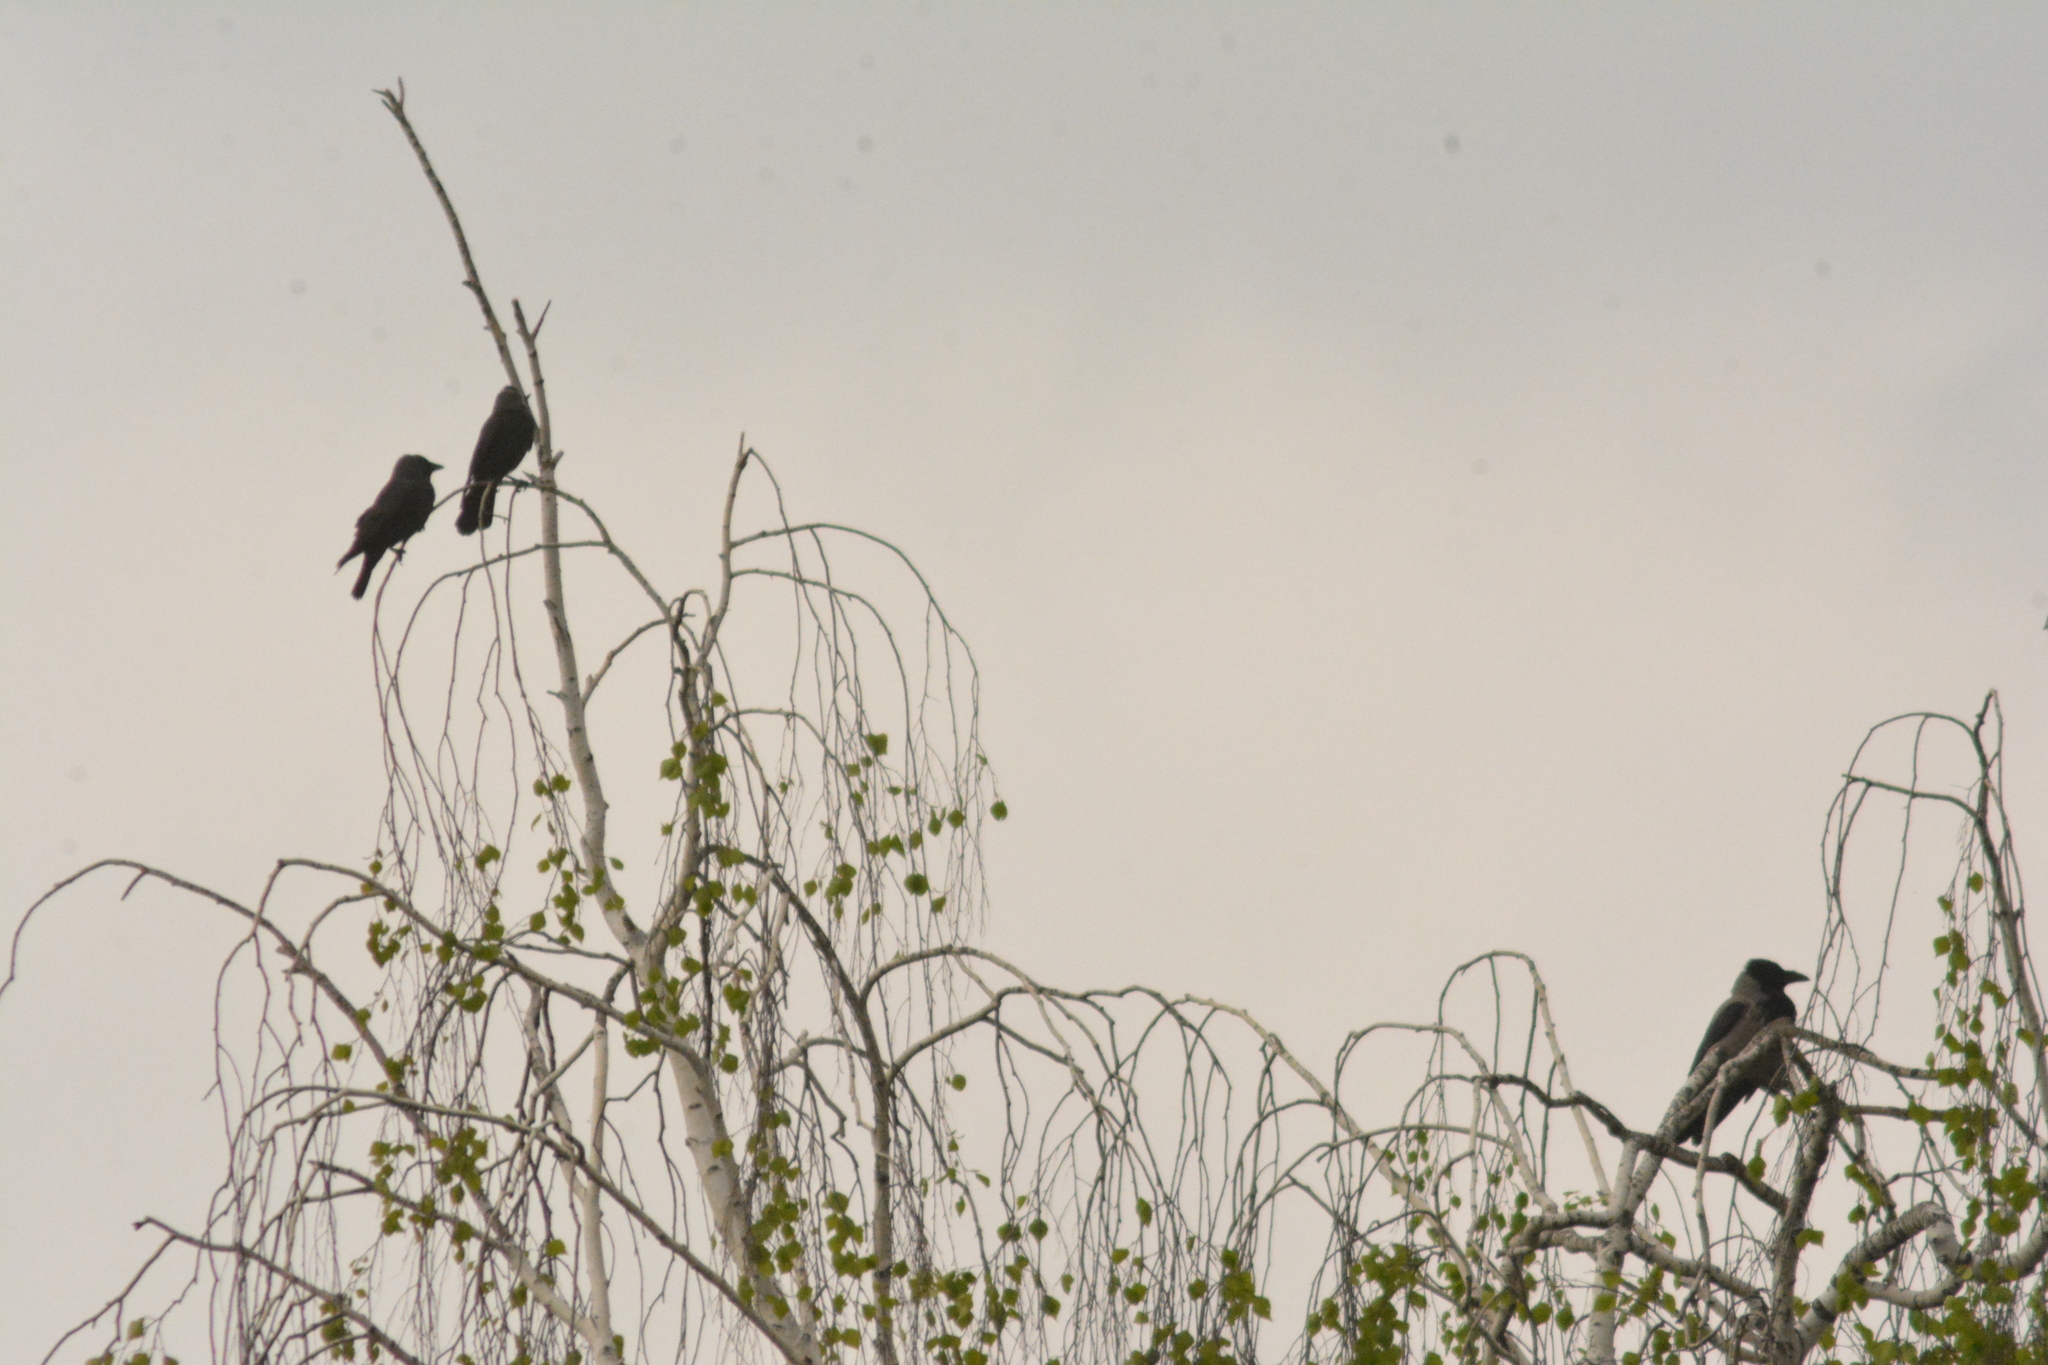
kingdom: Animalia
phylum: Chordata
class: Aves
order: Passeriformes
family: Corvidae
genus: Coloeus
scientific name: Coloeus monedula
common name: Western jackdaw
